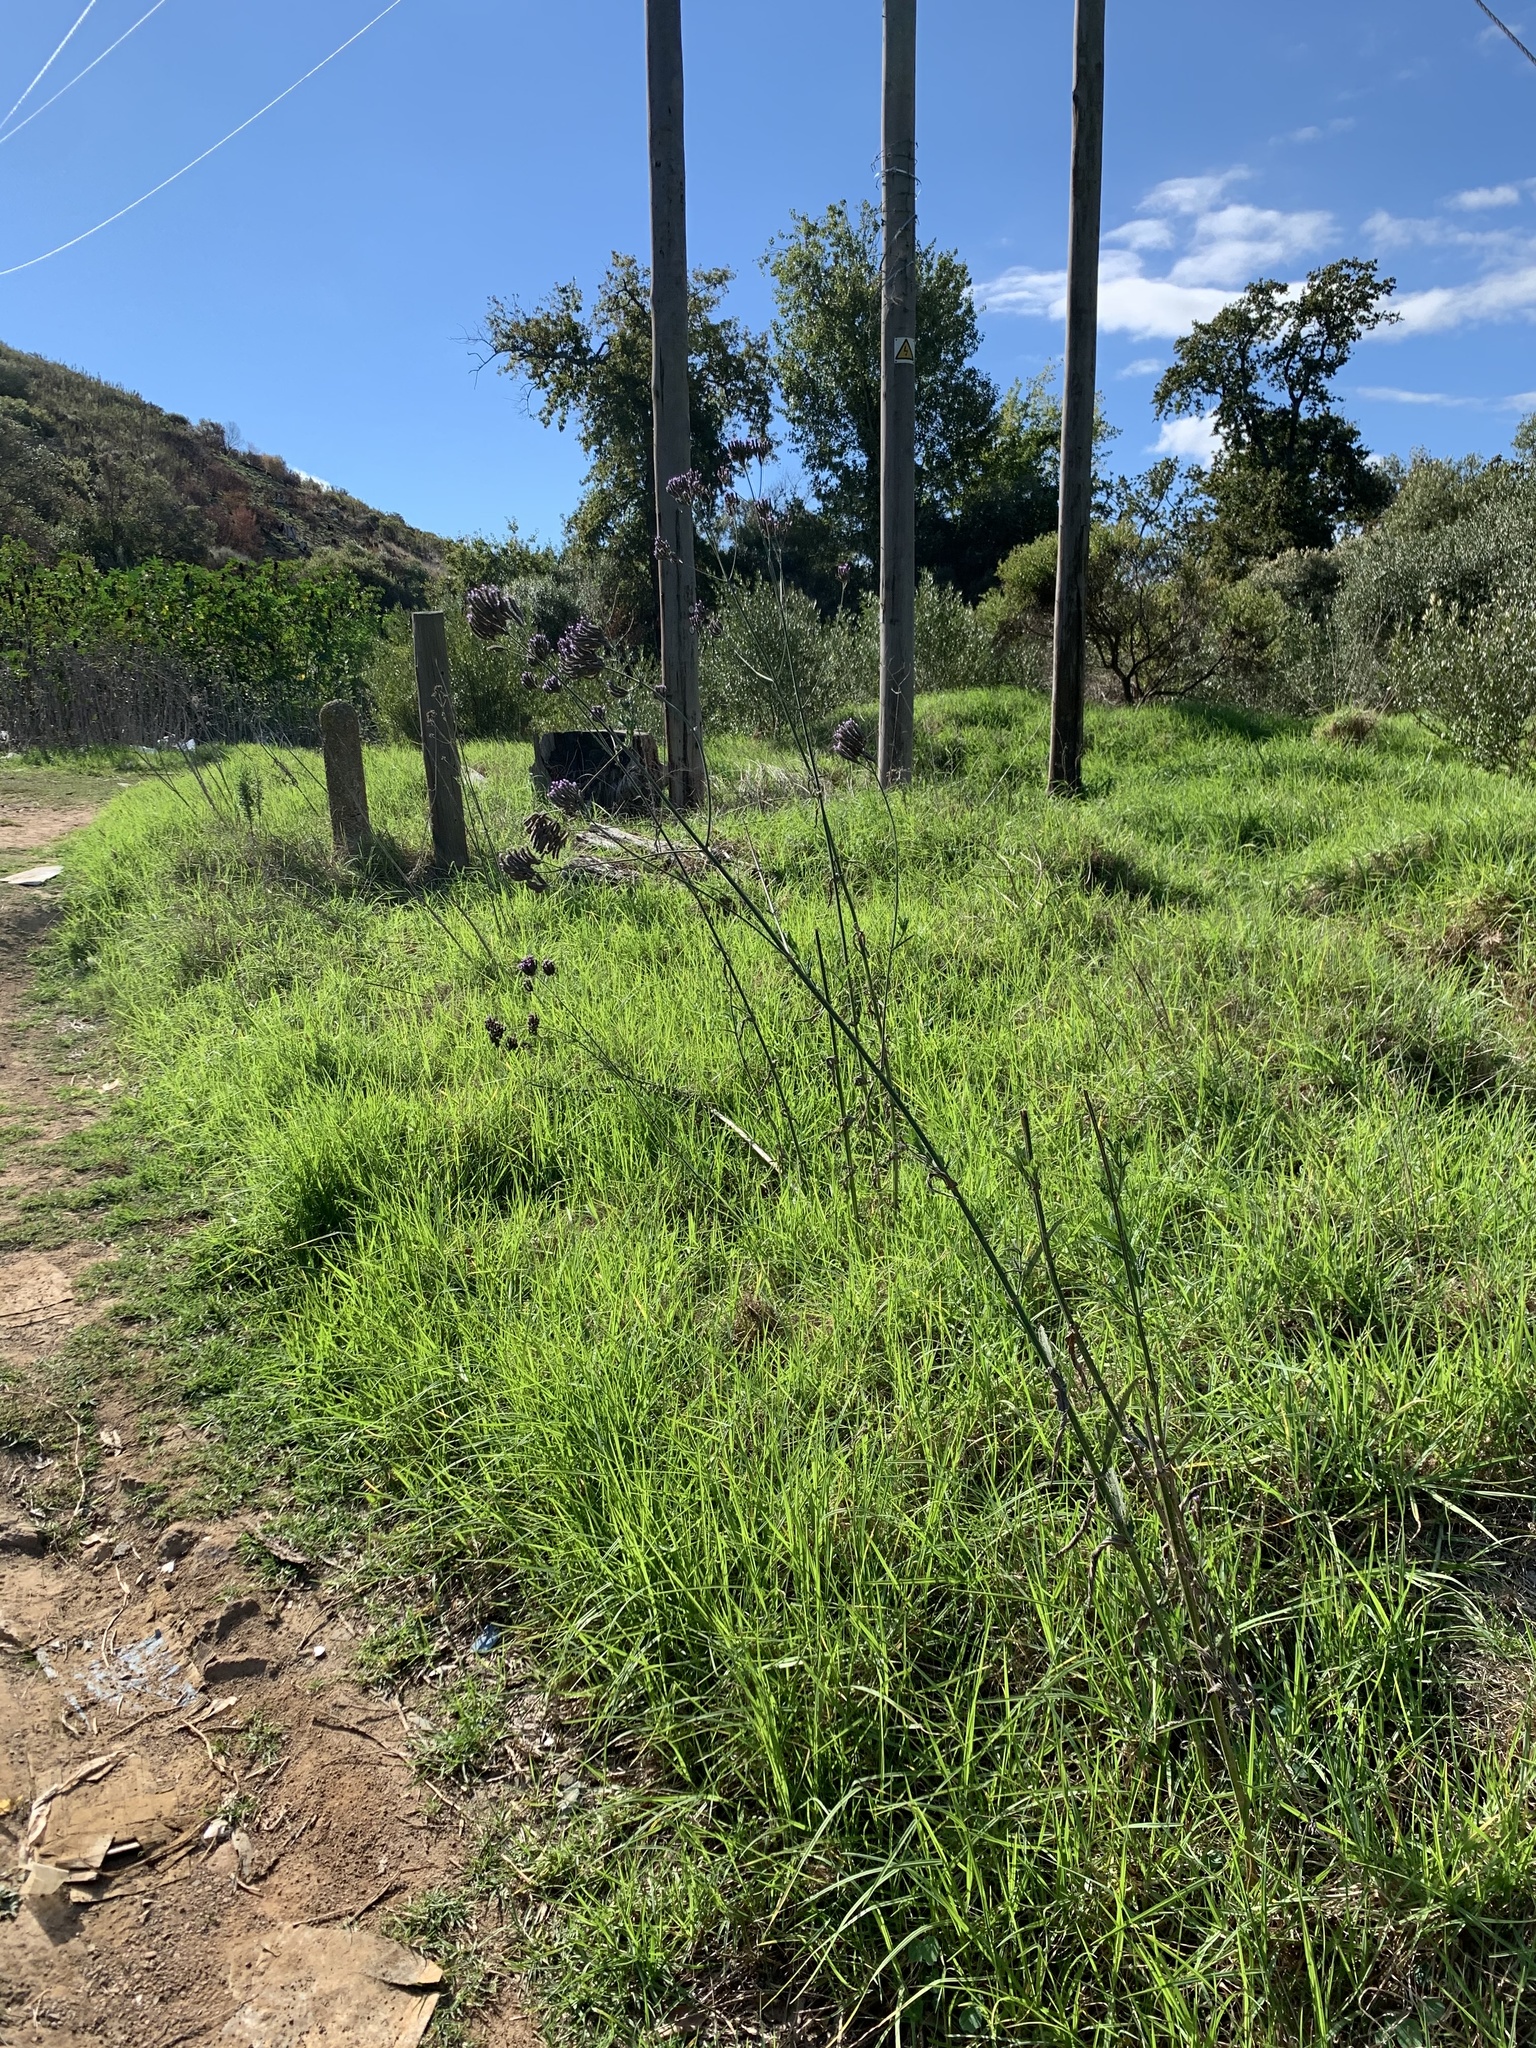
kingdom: Plantae
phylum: Tracheophyta
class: Magnoliopsida
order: Lamiales
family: Verbenaceae
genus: Verbena
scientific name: Verbena bonariensis
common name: Purpletop vervain
